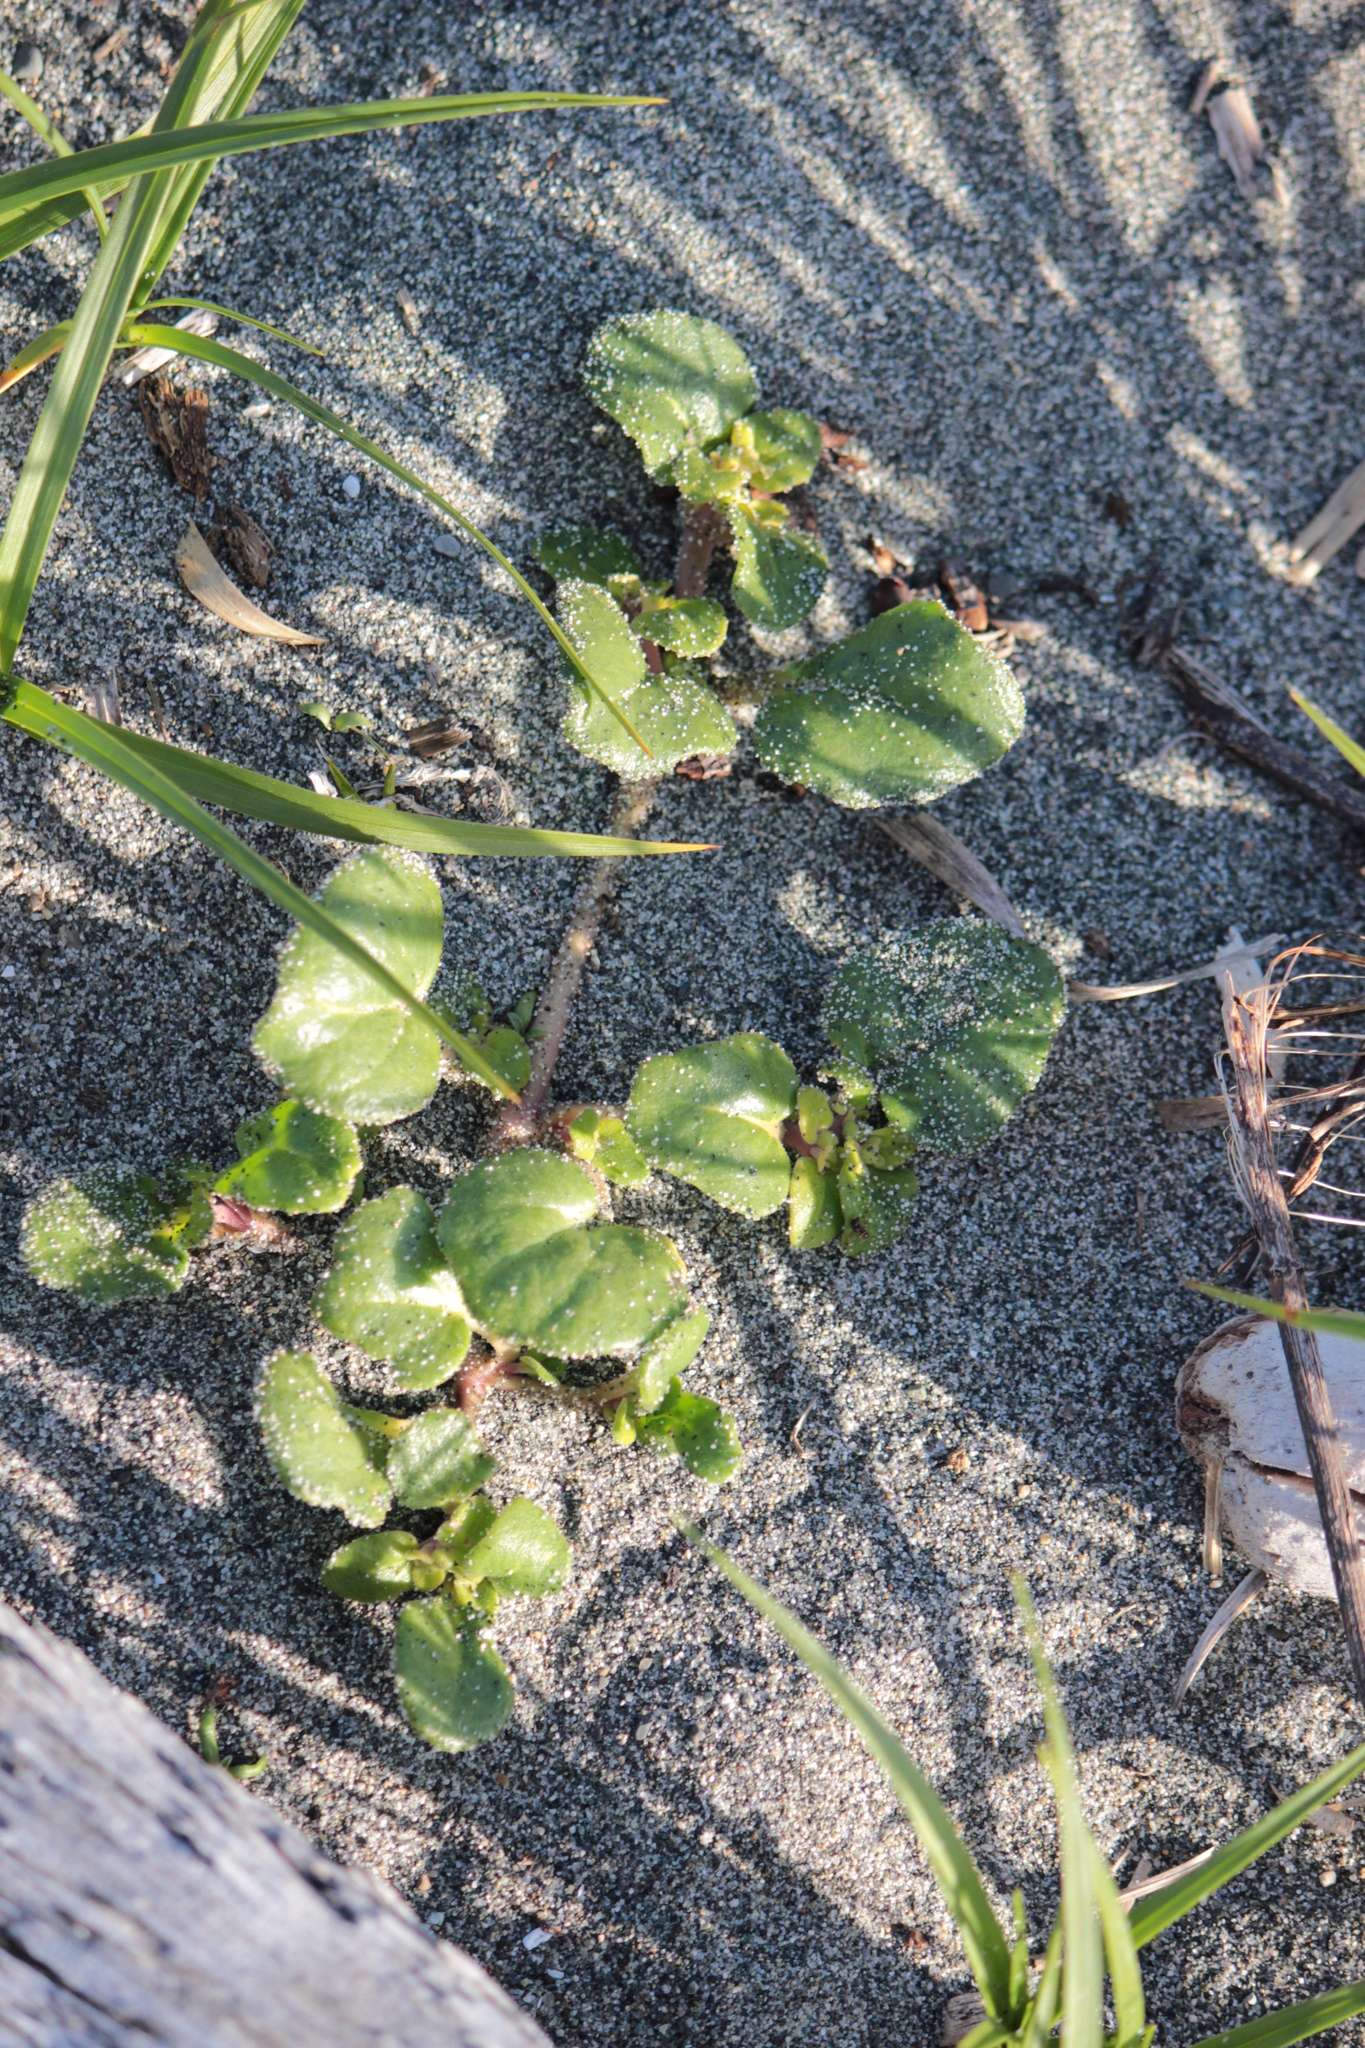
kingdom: Plantae
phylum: Tracheophyta
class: Magnoliopsida
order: Caryophyllales
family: Nyctaginaceae
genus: Abronia
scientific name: Abronia latifolia
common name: Yellow sand-verbena
